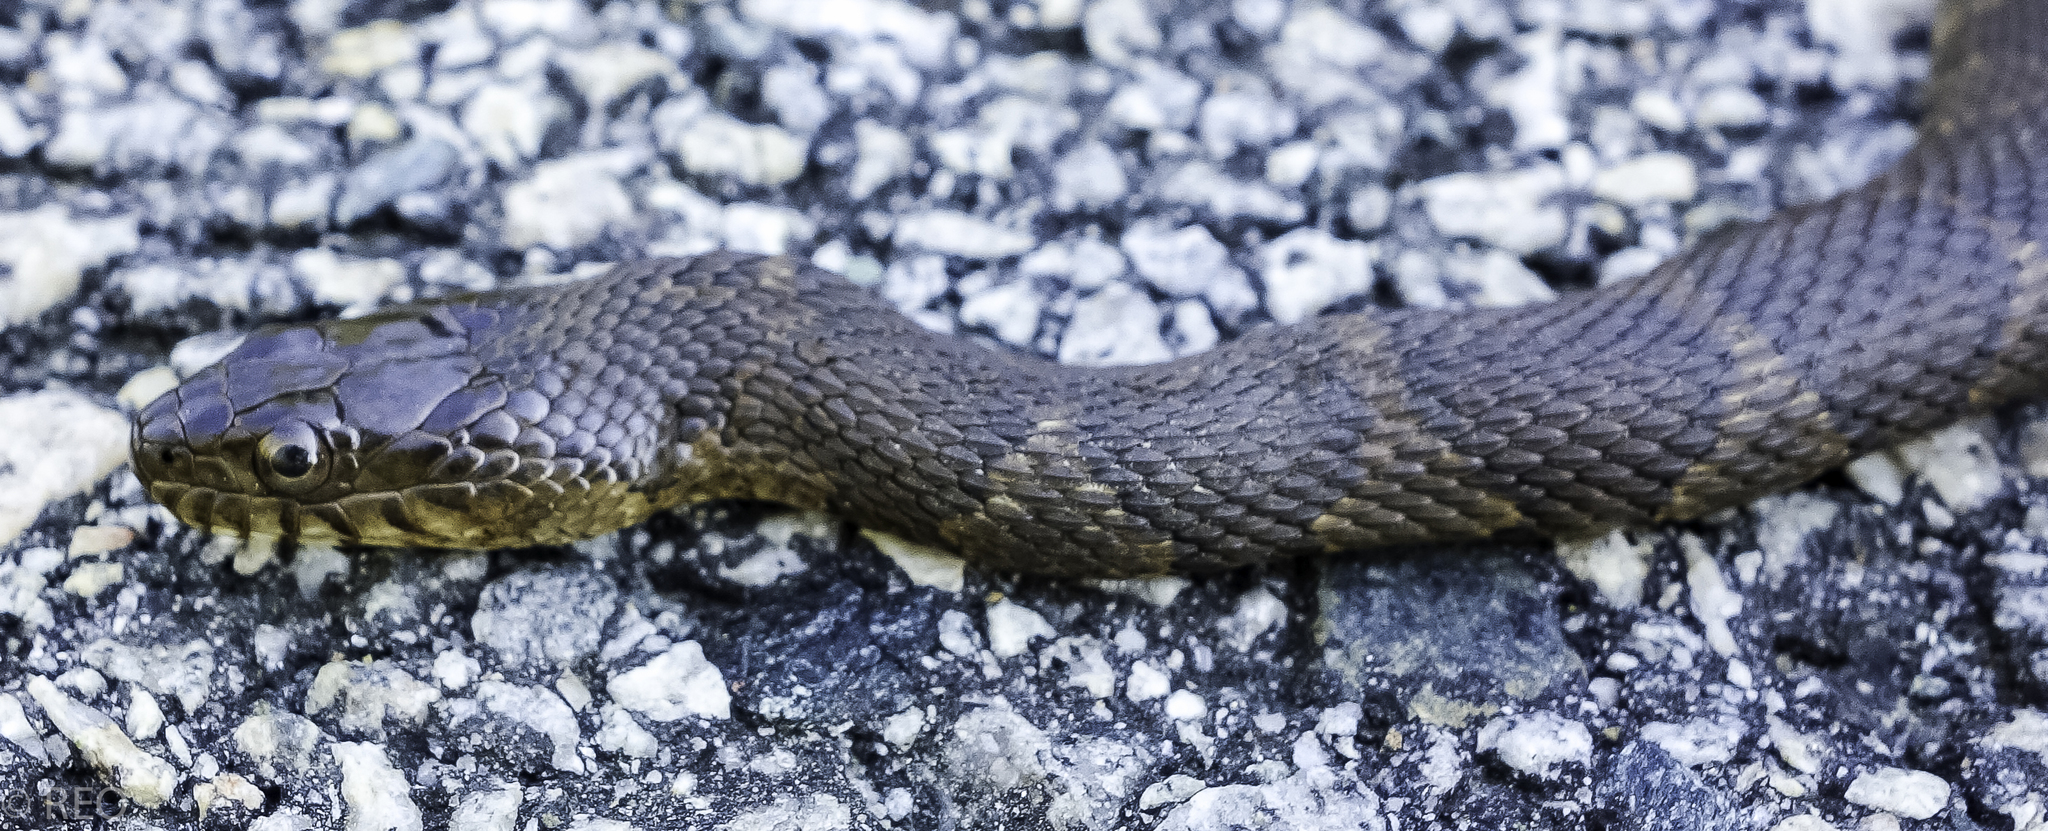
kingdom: Animalia
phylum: Chordata
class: Squamata
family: Colubridae
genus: Nerodia
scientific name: Nerodia sipedon
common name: Northern water snake
